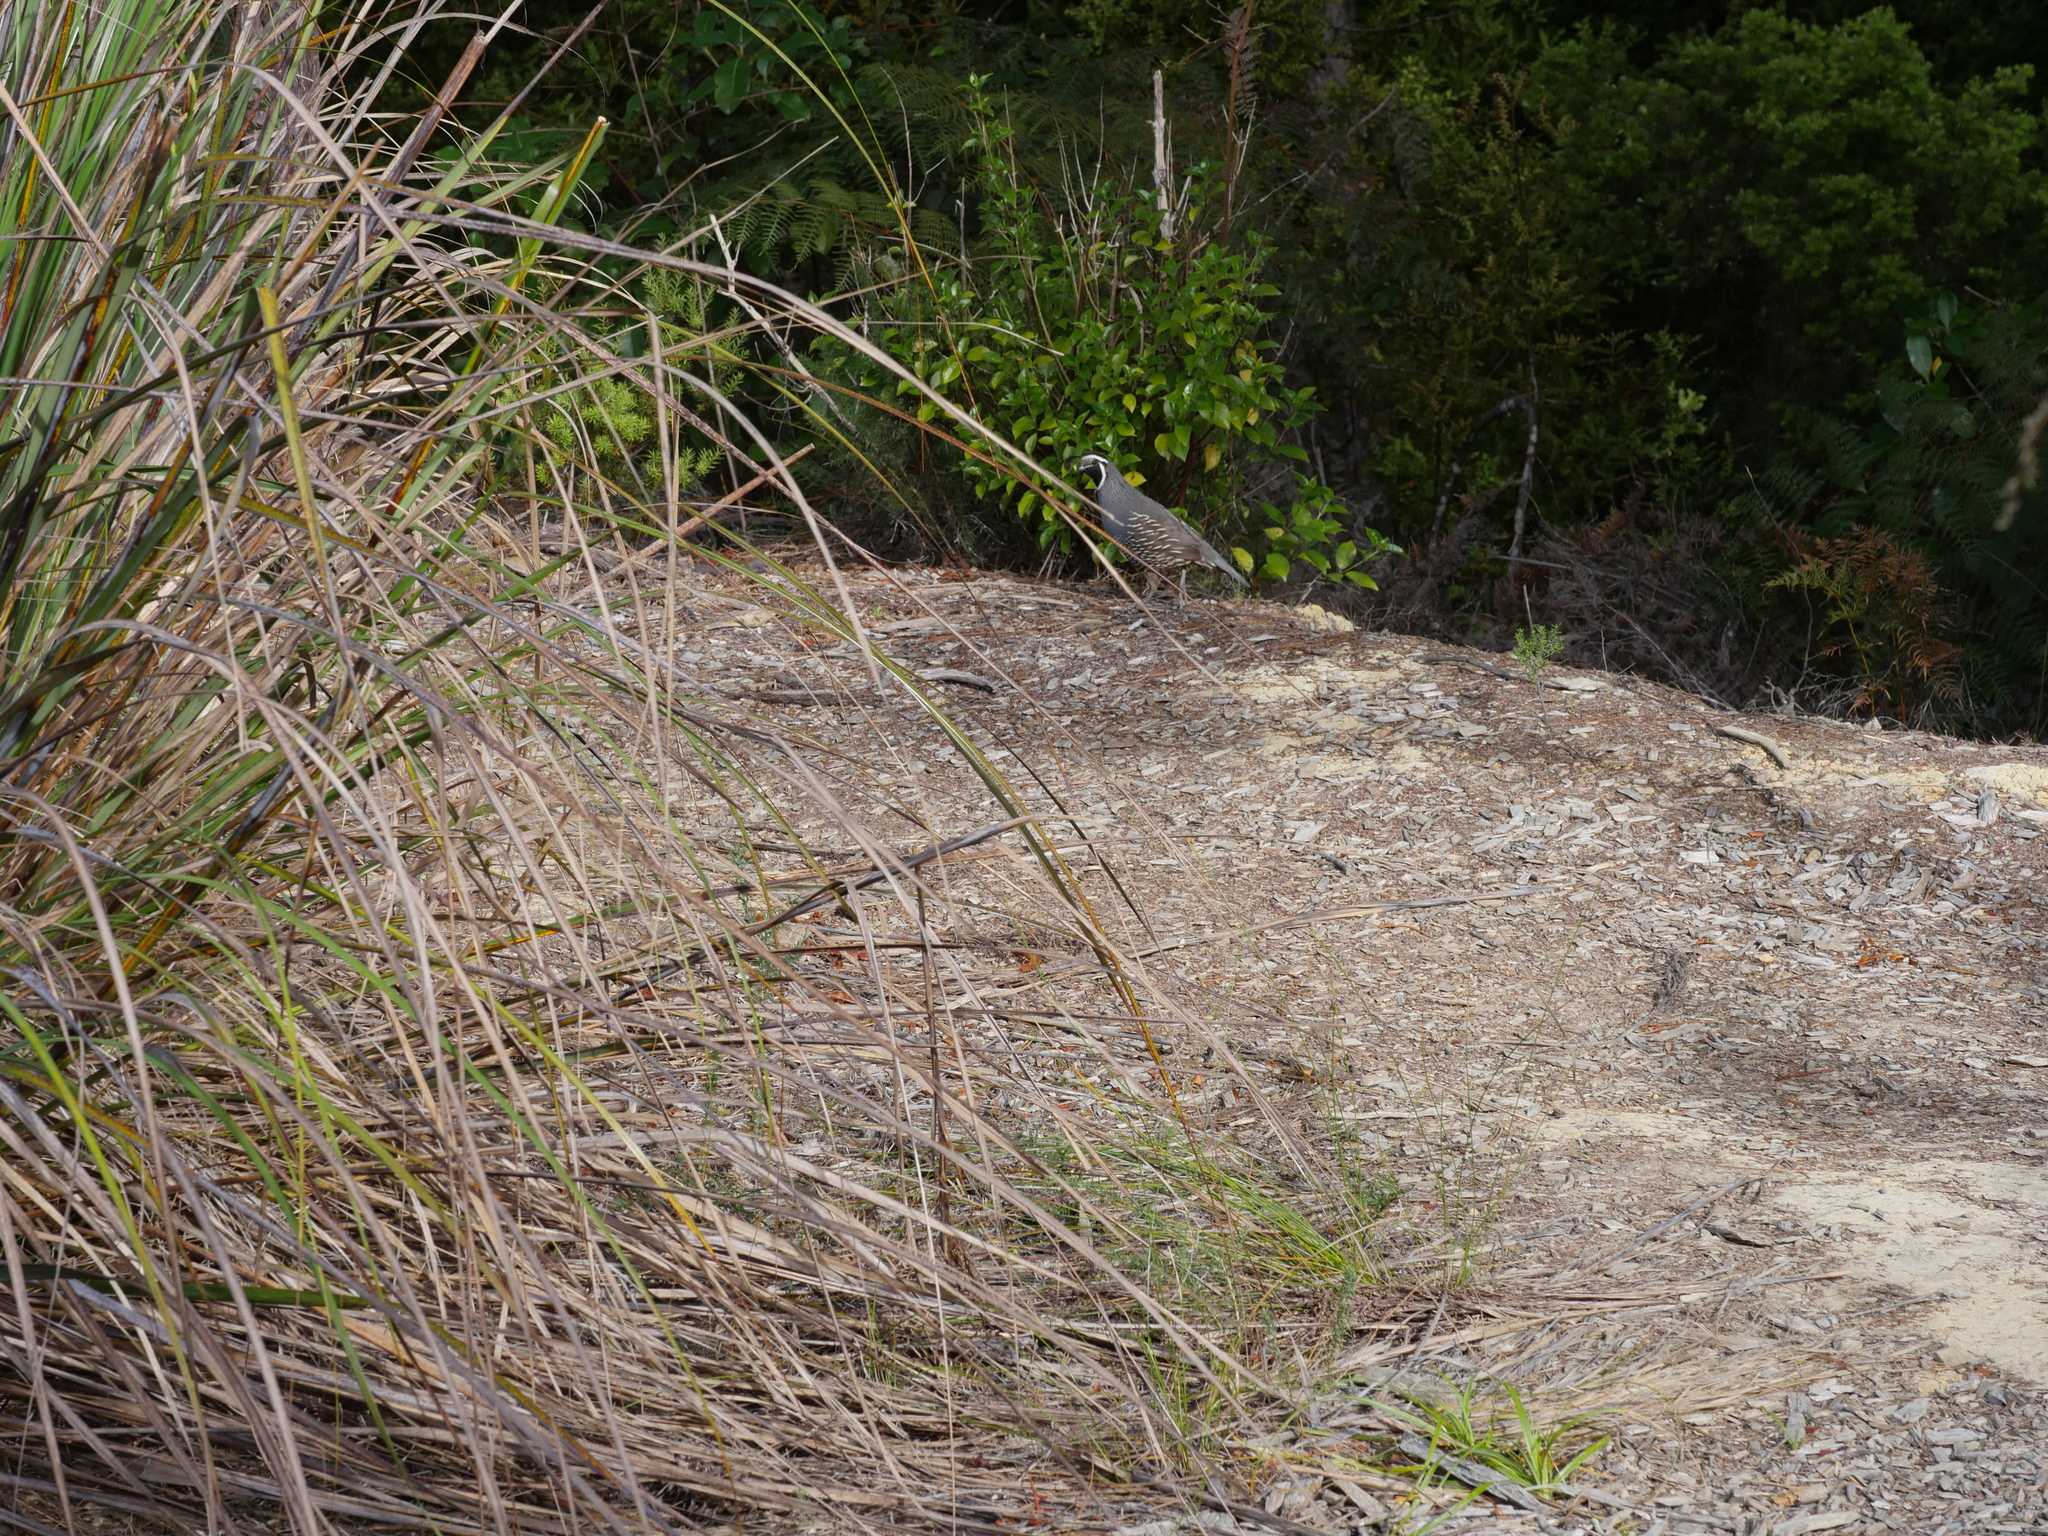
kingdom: Animalia
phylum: Chordata
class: Aves
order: Galliformes
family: Odontophoridae
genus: Callipepla
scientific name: Callipepla californica
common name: California quail
